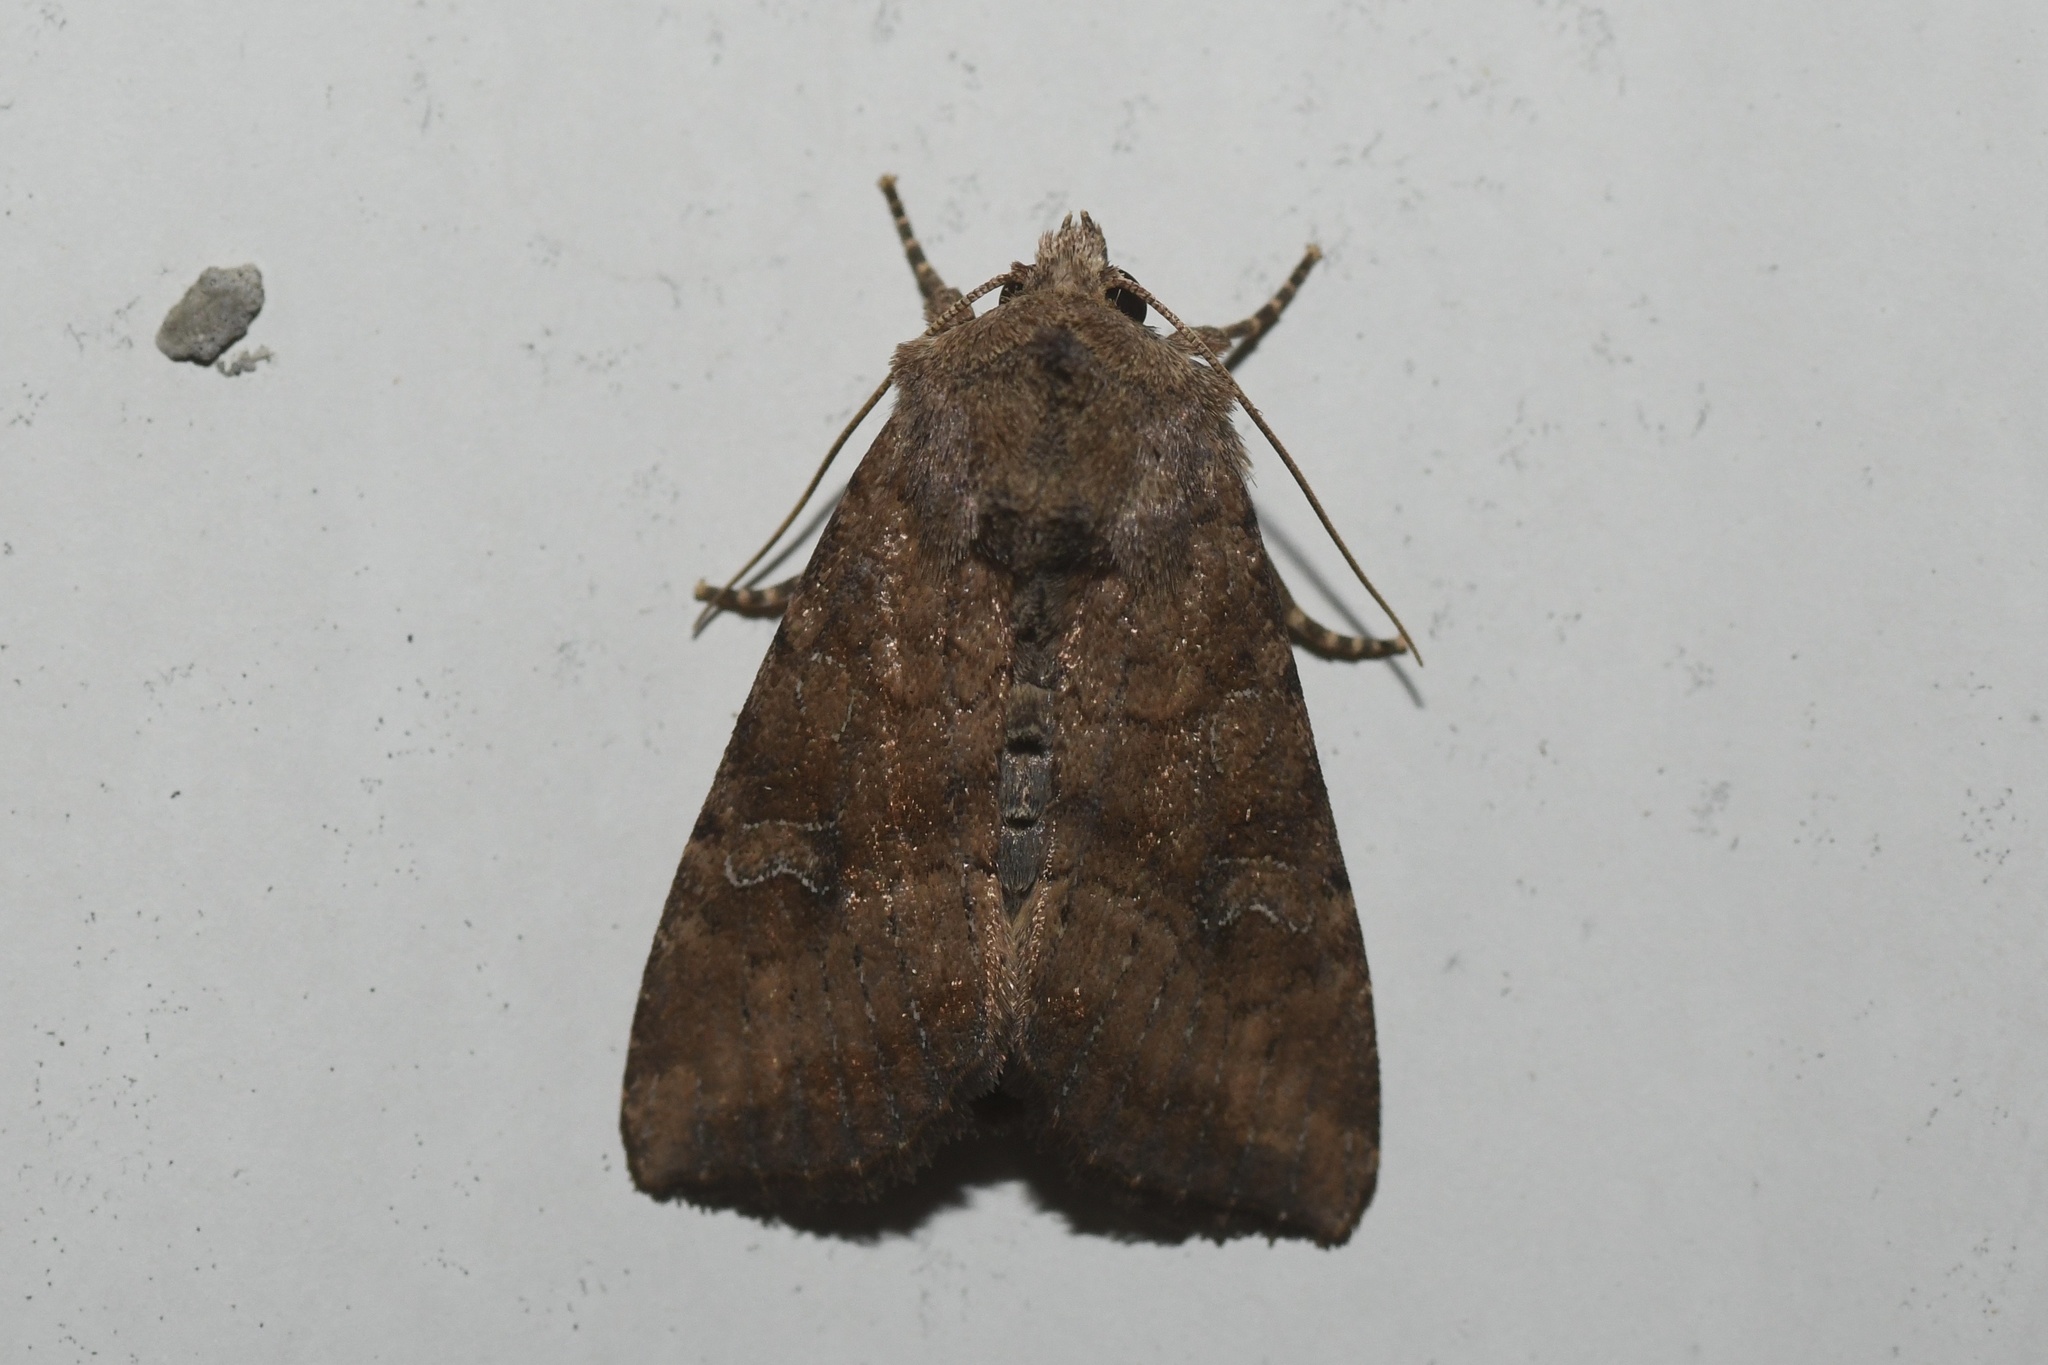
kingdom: Animalia
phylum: Arthropoda
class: Insecta
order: Lepidoptera
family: Noctuidae
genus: Loscopia
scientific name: Loscopia velata
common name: Veiled ear moth
